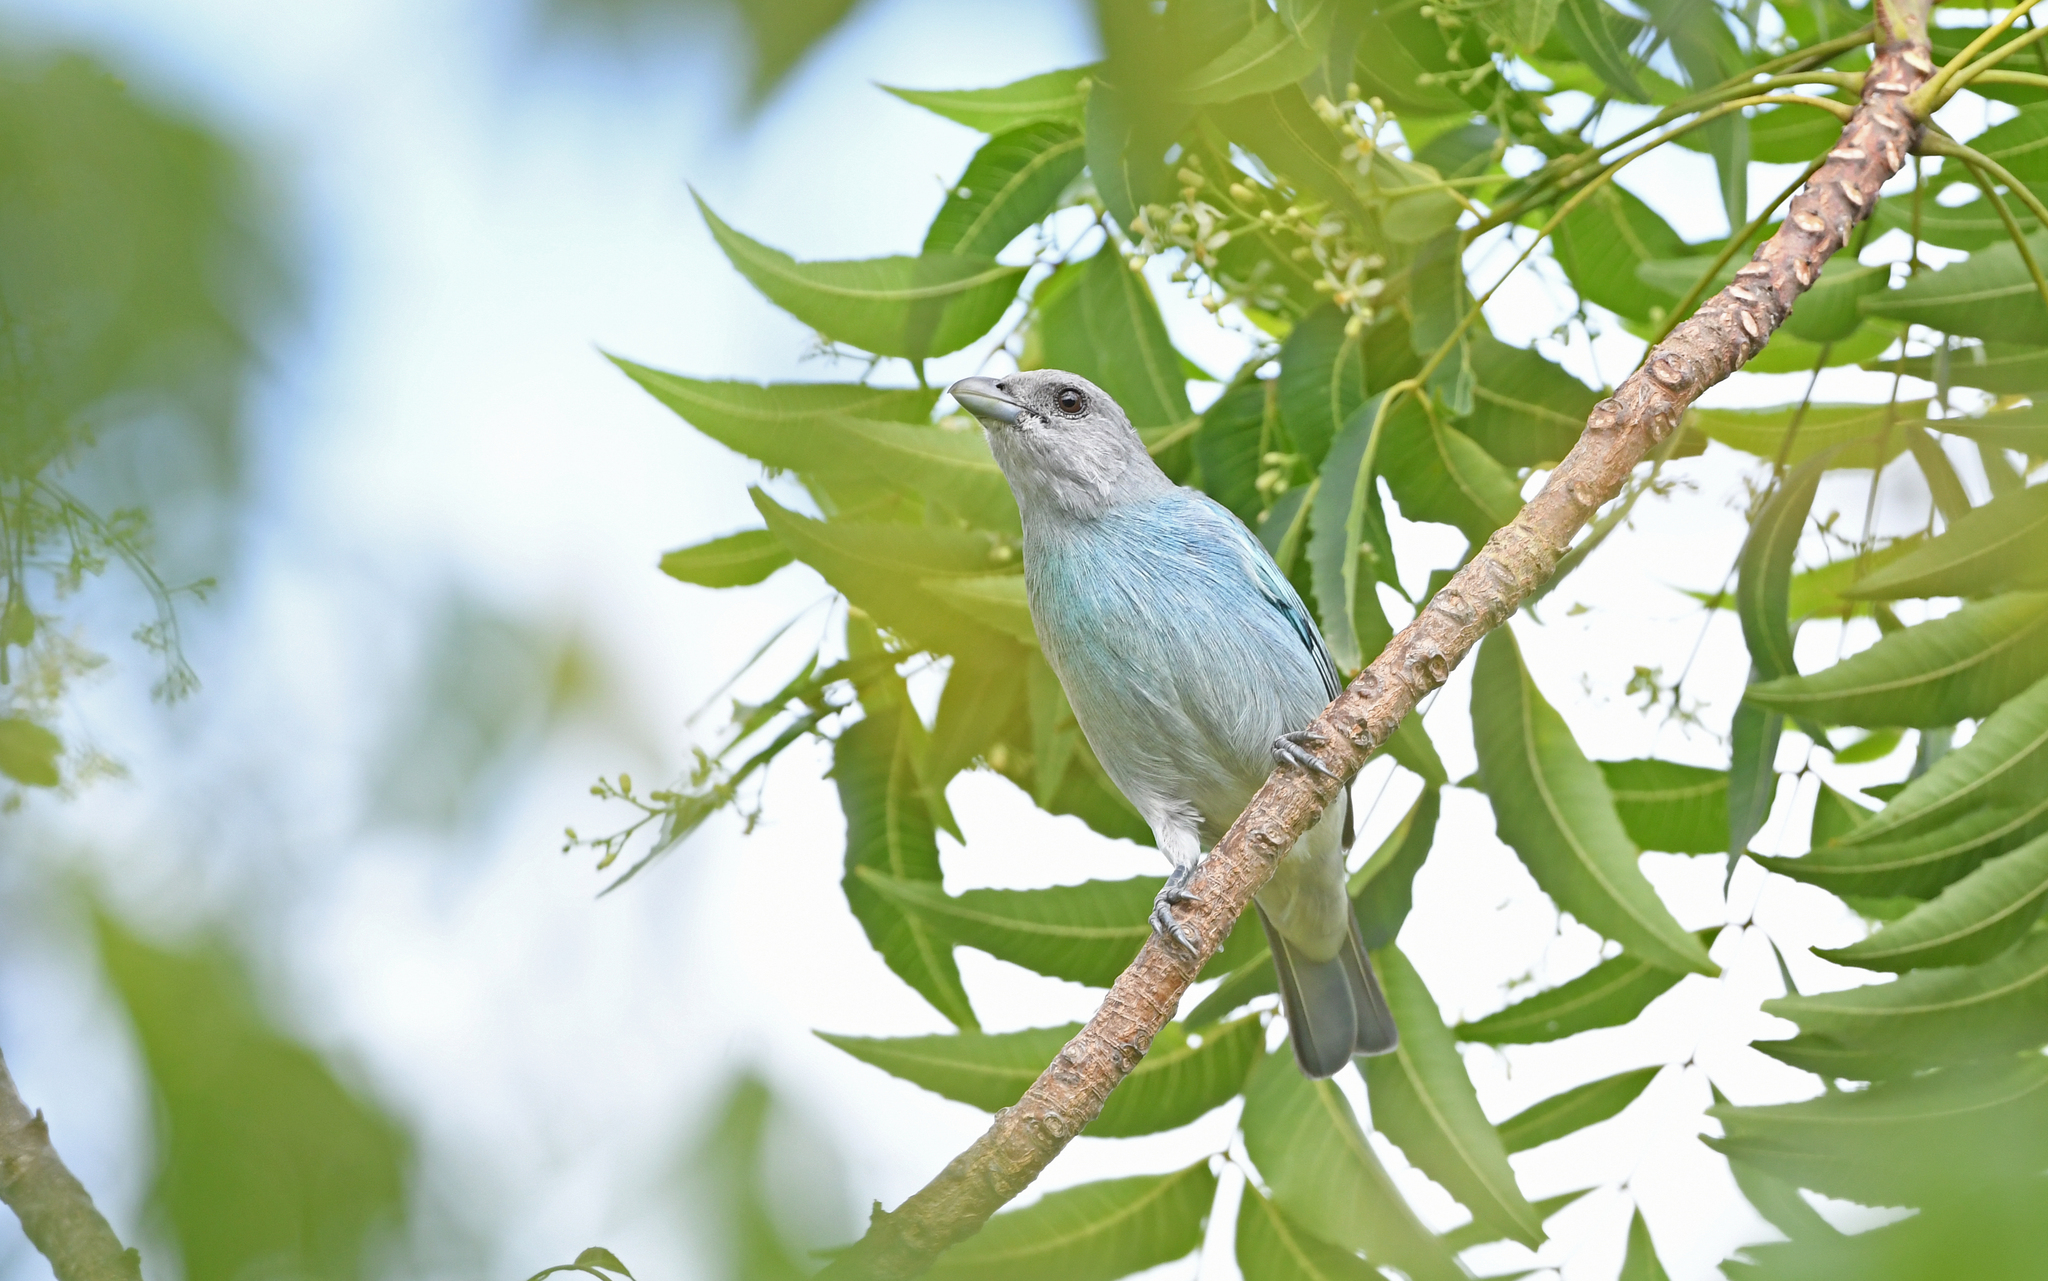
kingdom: Animalia
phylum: Chordata
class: Aves
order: Passeriformes
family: Thraupidae
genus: Thraupis
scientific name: Thraupis glaucocolpa
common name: Glaucous tanager
